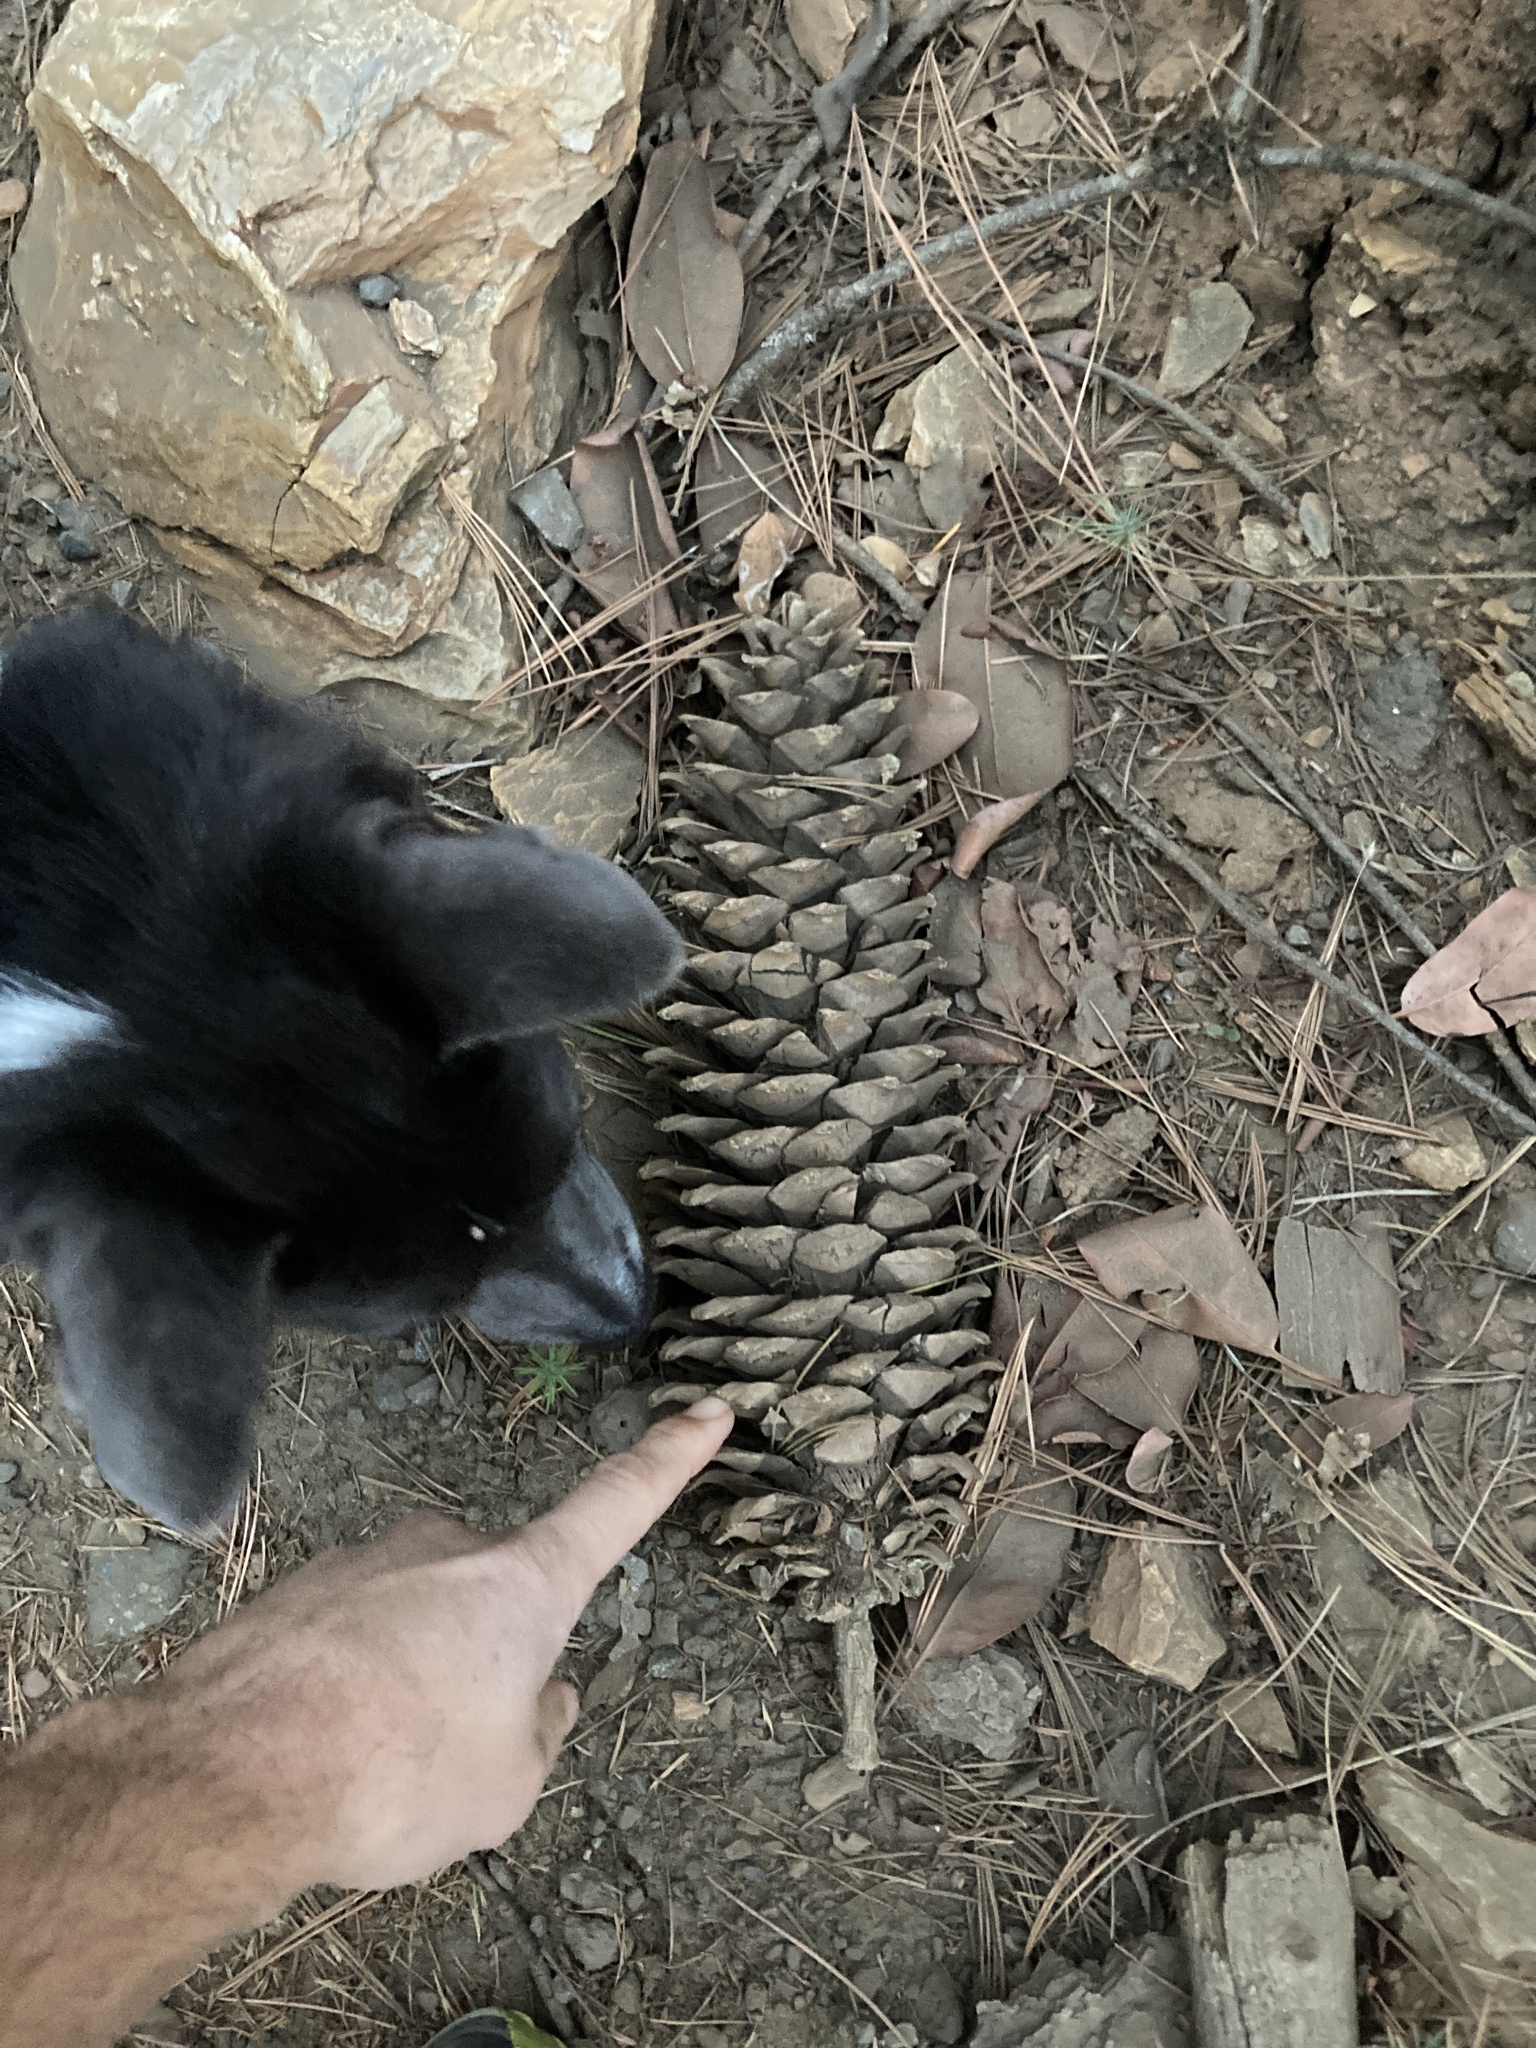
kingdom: Plantae
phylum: Tracheophyta
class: Pinopsida
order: Pinales
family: Pinaceae
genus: Pinus
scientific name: Pinus lambertiana
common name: Sugar pine
